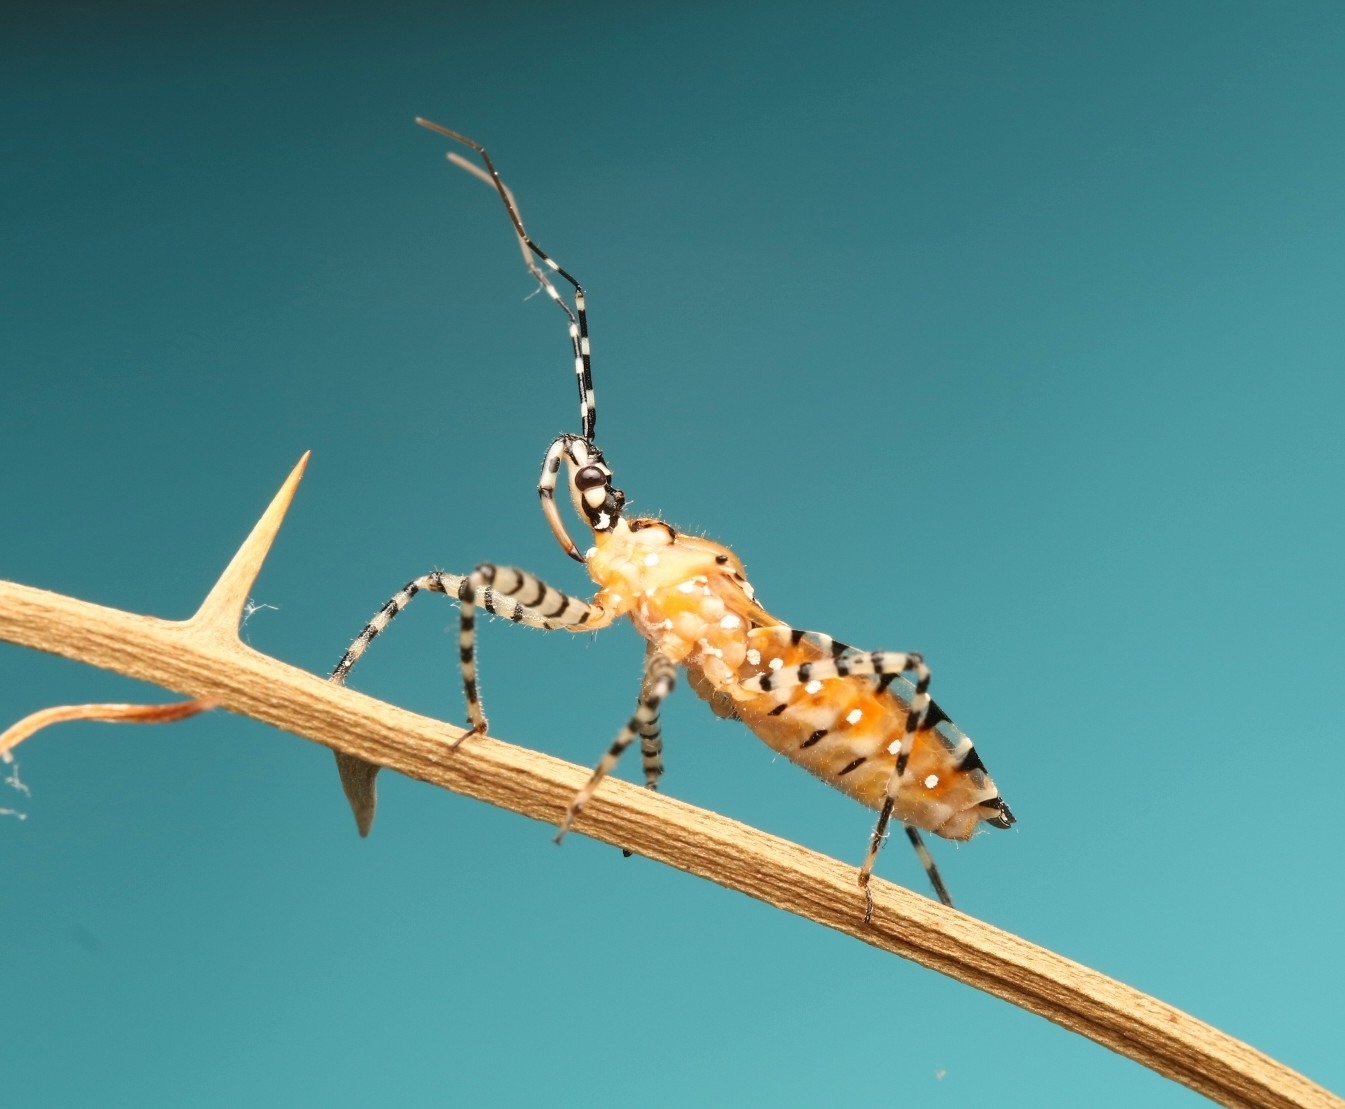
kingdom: Animalia
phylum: Arthropoda
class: Insecta
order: Hemiptera
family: Reduviidae
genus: Pselliopus
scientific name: Pselliopus cinctus
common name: Ringed assassin bug
